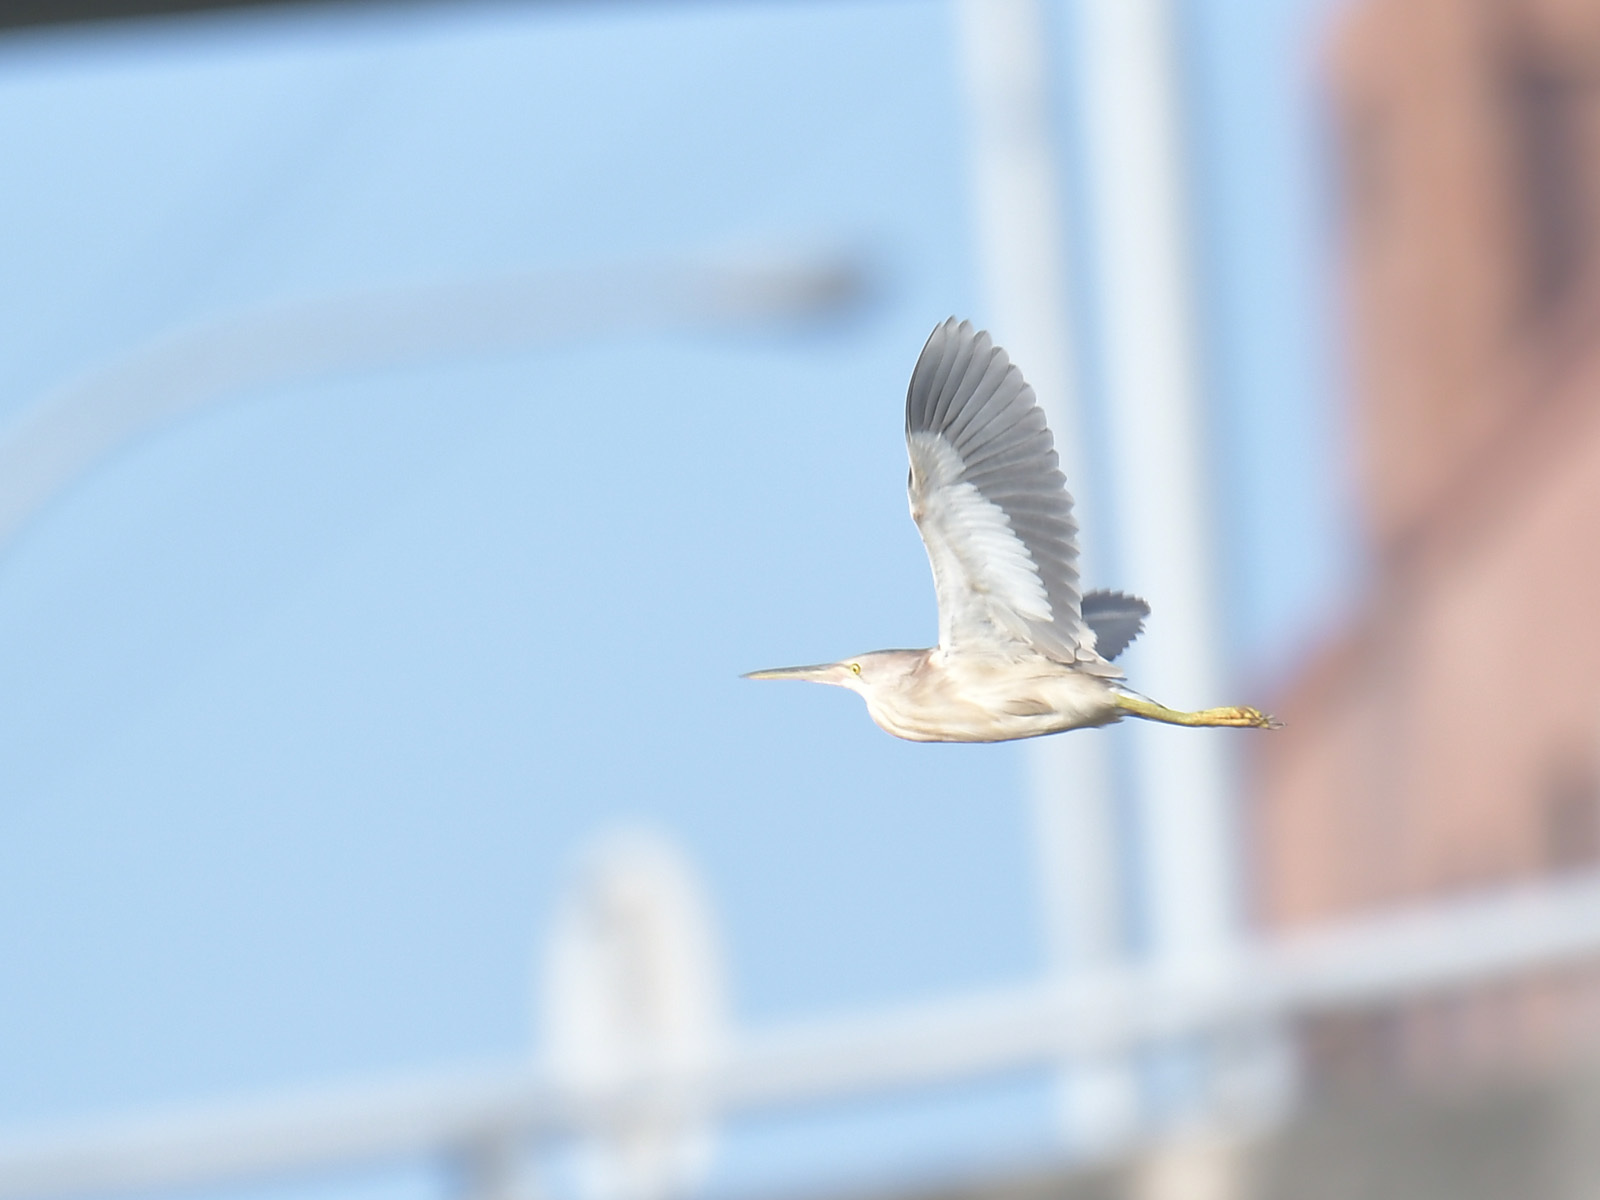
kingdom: Animalia
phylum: Chordata
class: Aves
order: Pelecaniformes
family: Ardeidae
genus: Ixobrychus
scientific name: Ixobrychus sinensis
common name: Yellow bittern
